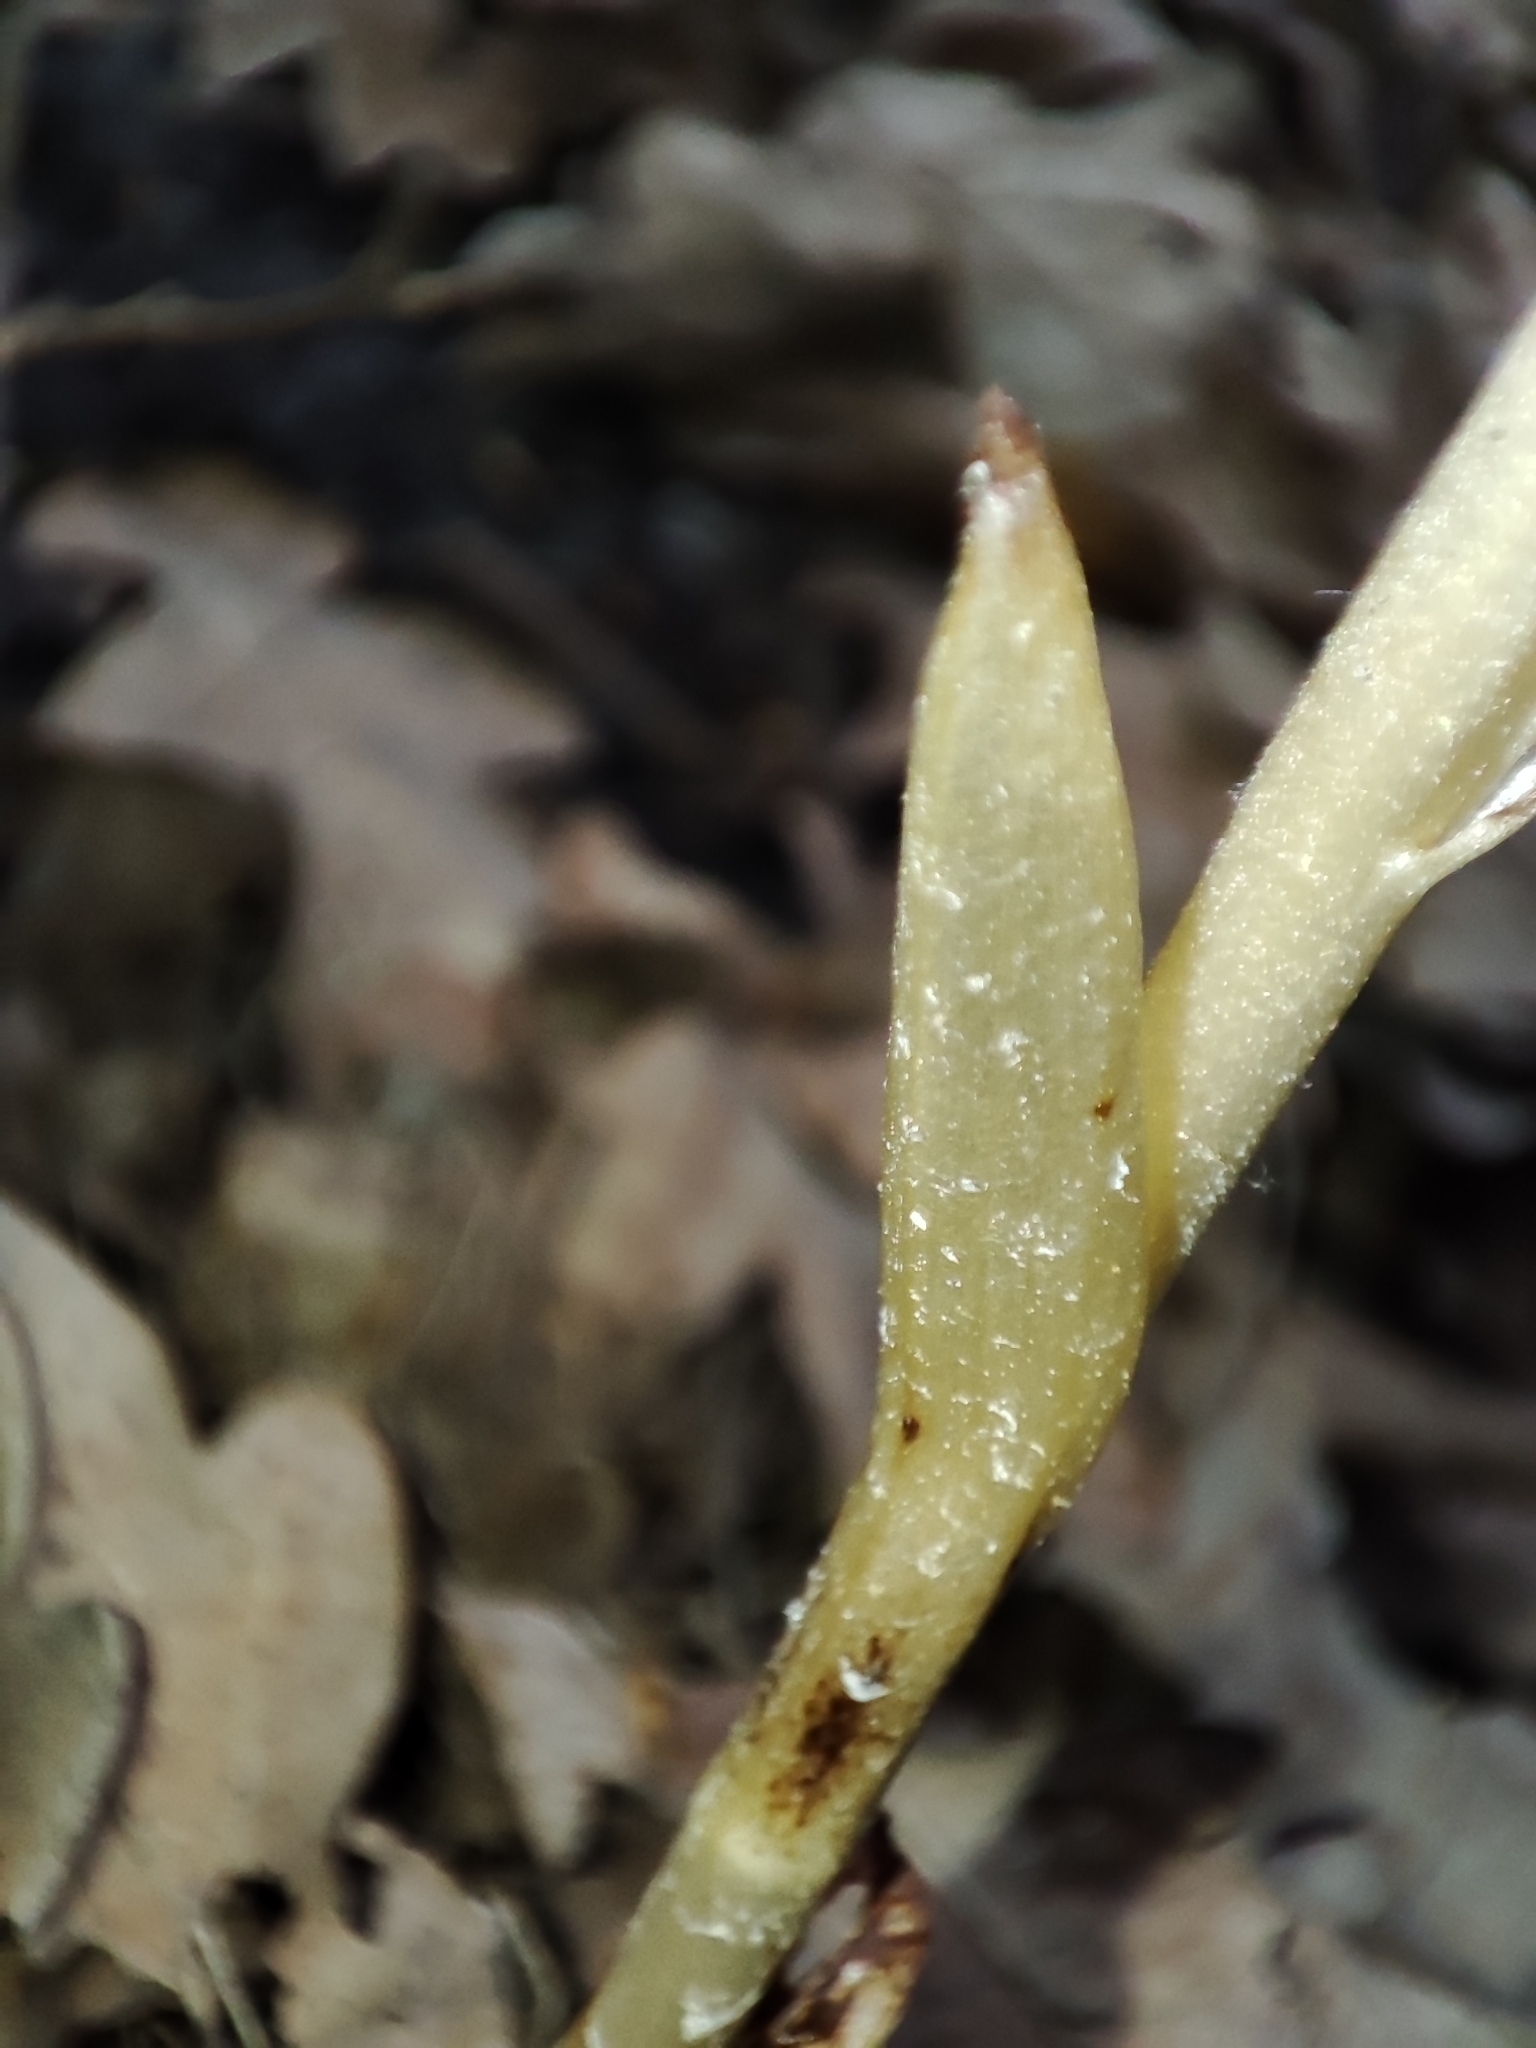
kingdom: Plantae
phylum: Tracheophyta
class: Liliopsida
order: Asparagales
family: Orchidaceae
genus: Neottia
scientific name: Neottia nidus-avis
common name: Bird's-nest orchid
